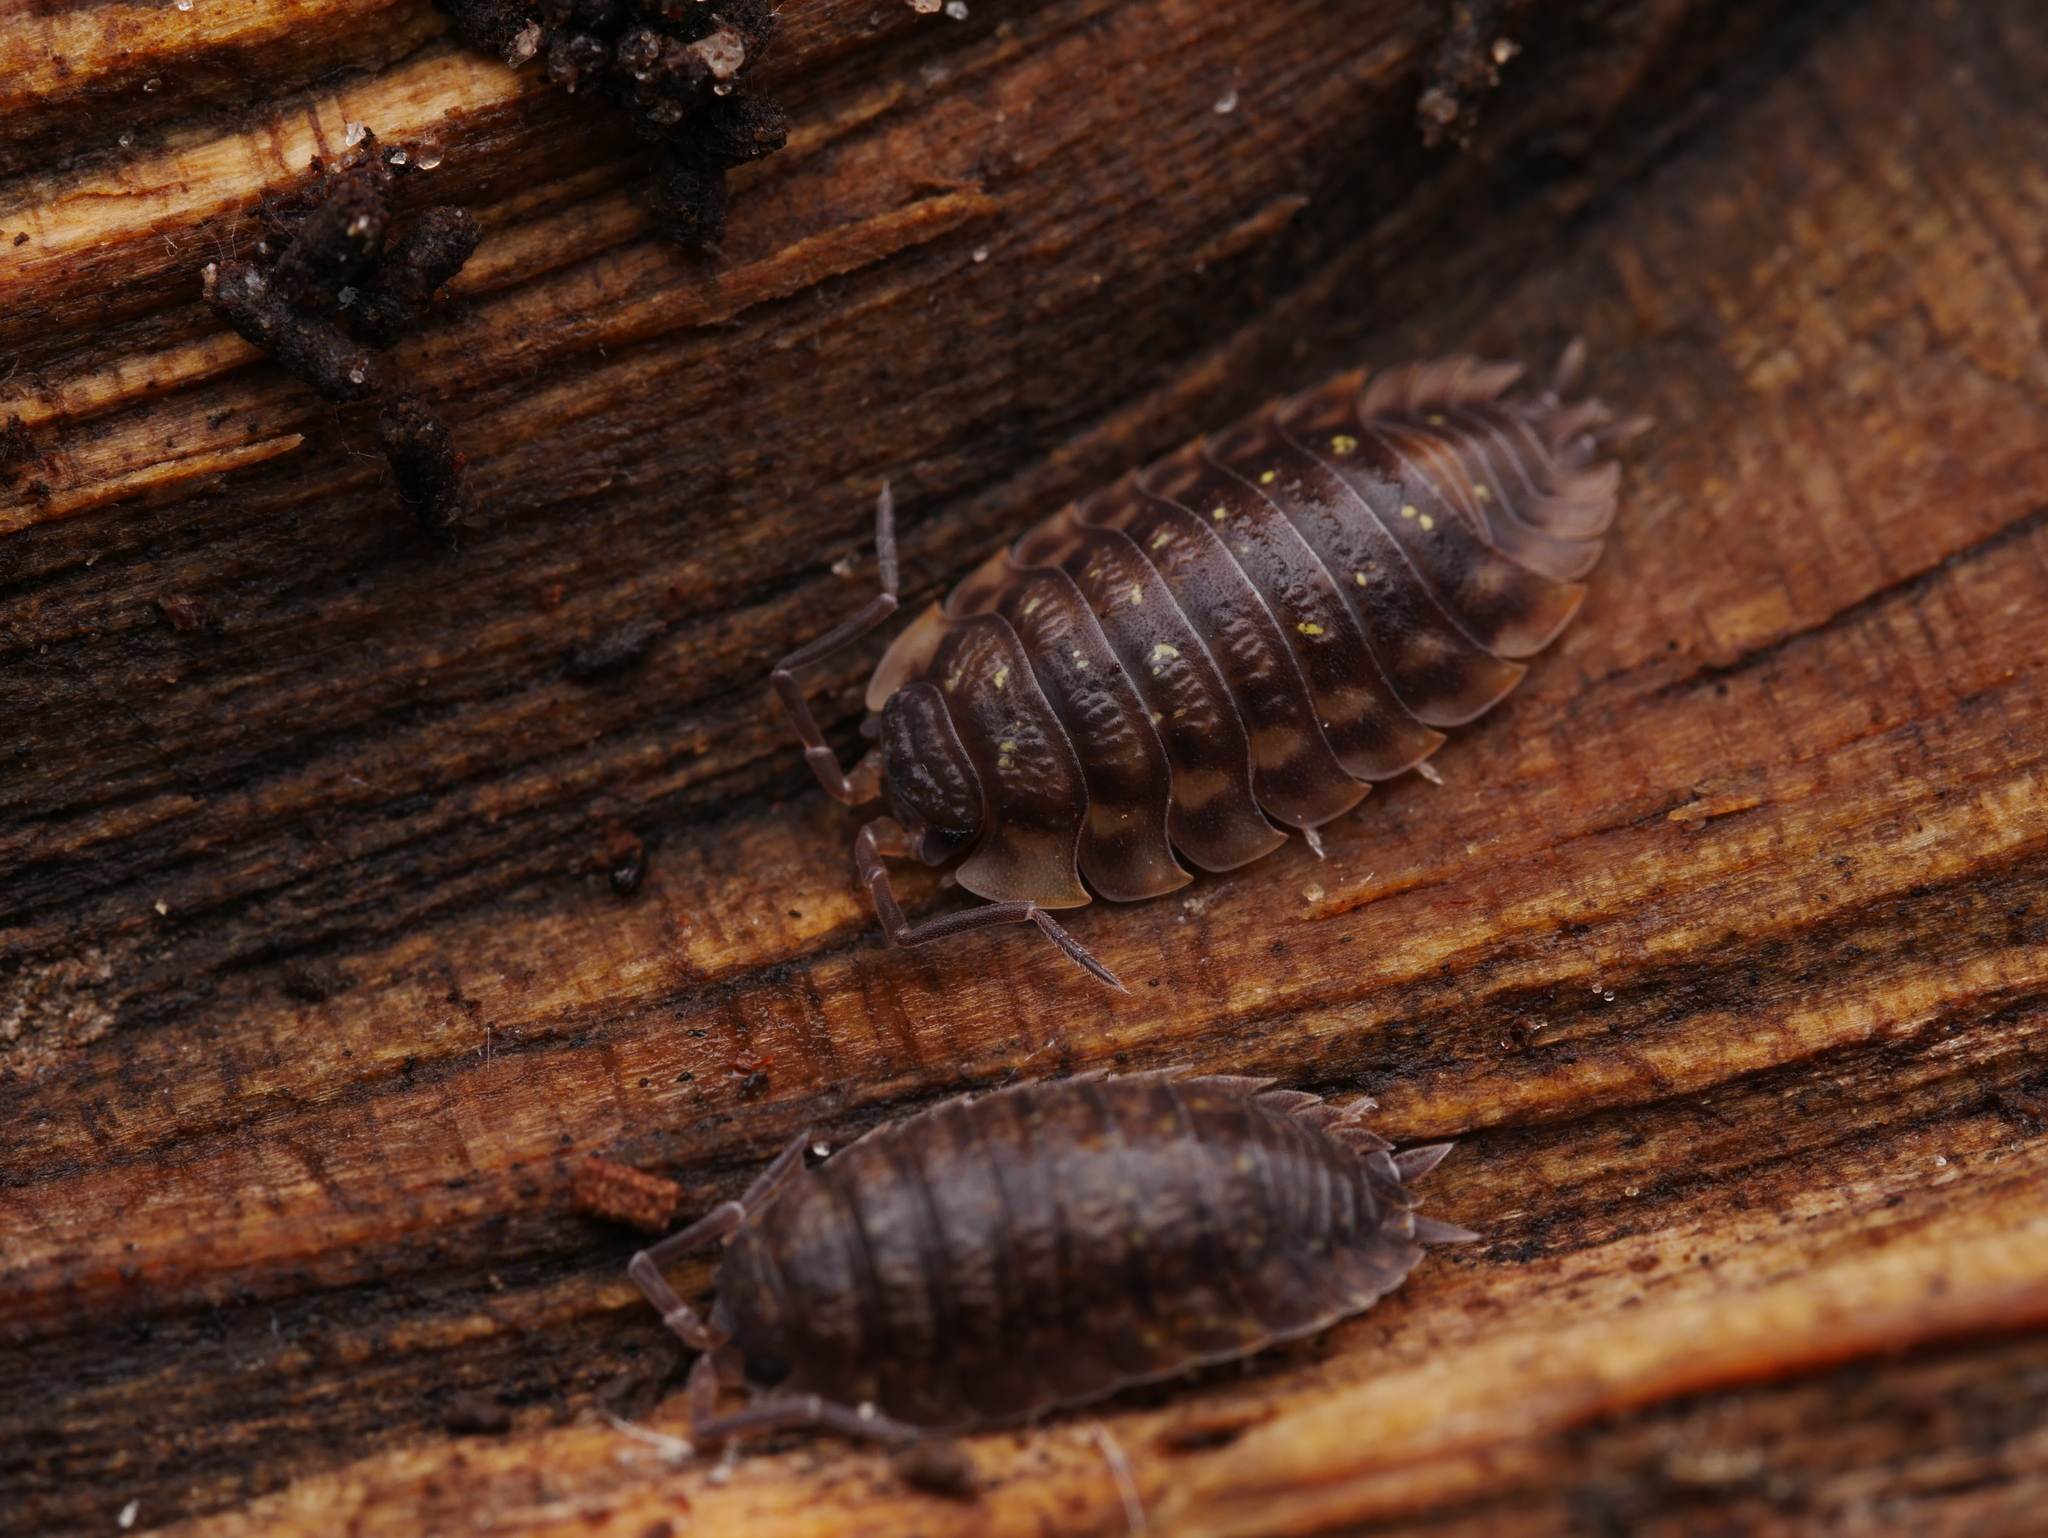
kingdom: Animalia
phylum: Arthropoda
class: Malacostraca
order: Isopoda
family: Oniscidae
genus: Oniscus
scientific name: Oniscus asellus
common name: Common shiny woodlouse
